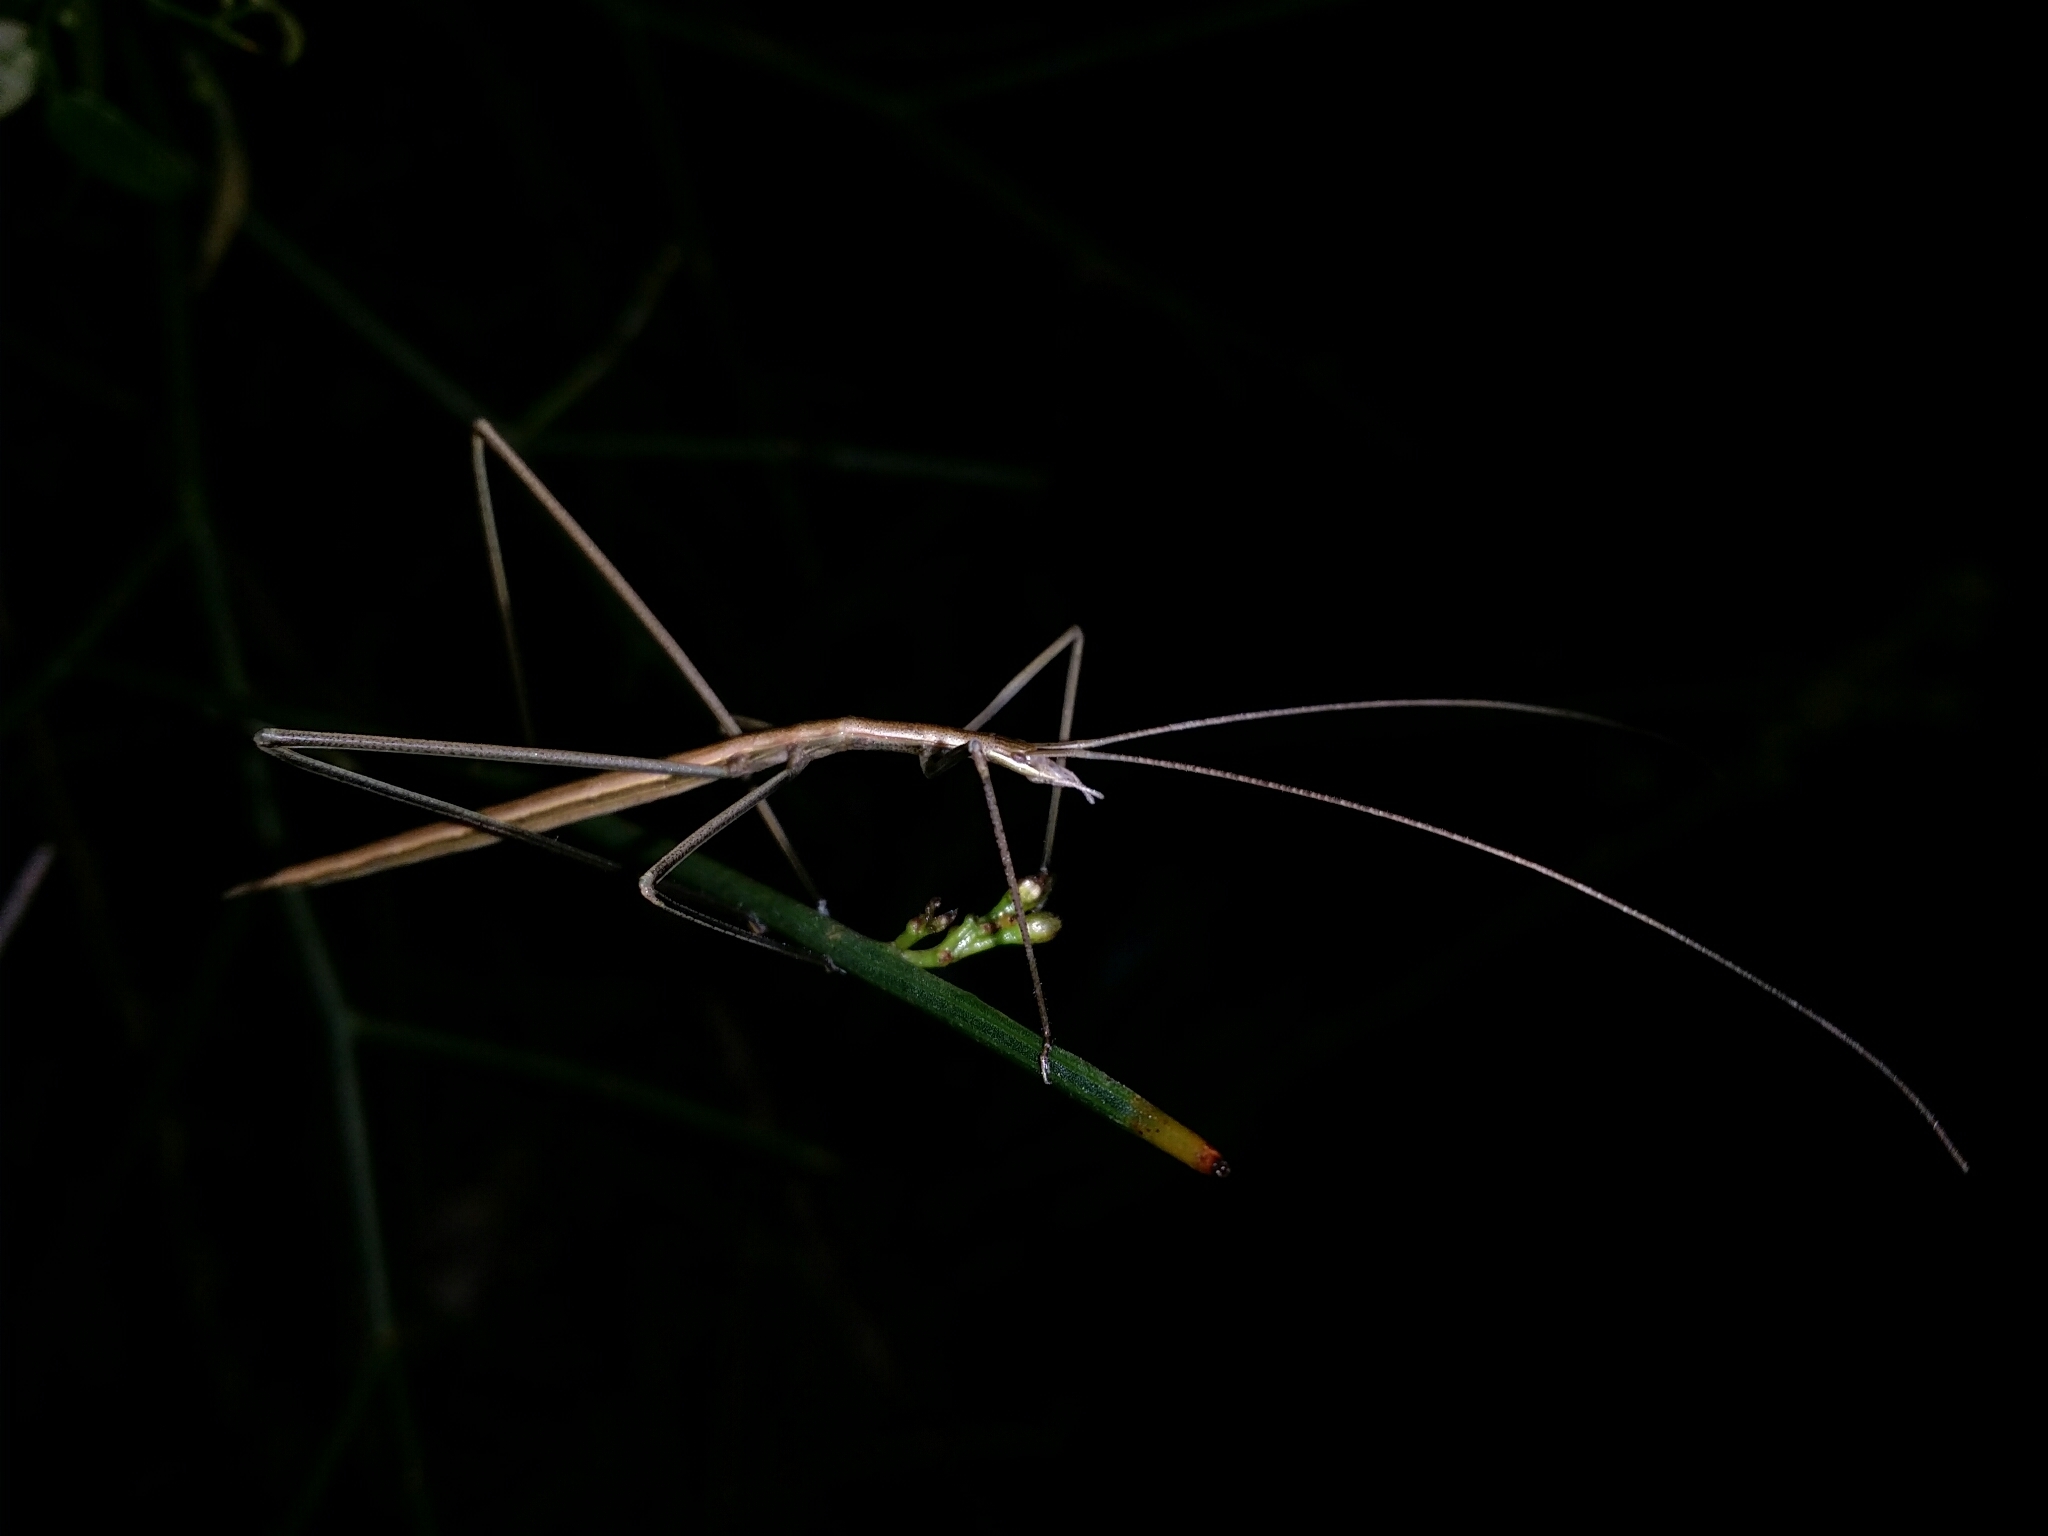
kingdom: Animalia
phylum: Arthropoda
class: Insecta
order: Orthoptera
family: Tettigoniidae
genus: Phasmodes
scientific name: Phasmodes ranatriformis
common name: King's park stick katydid
